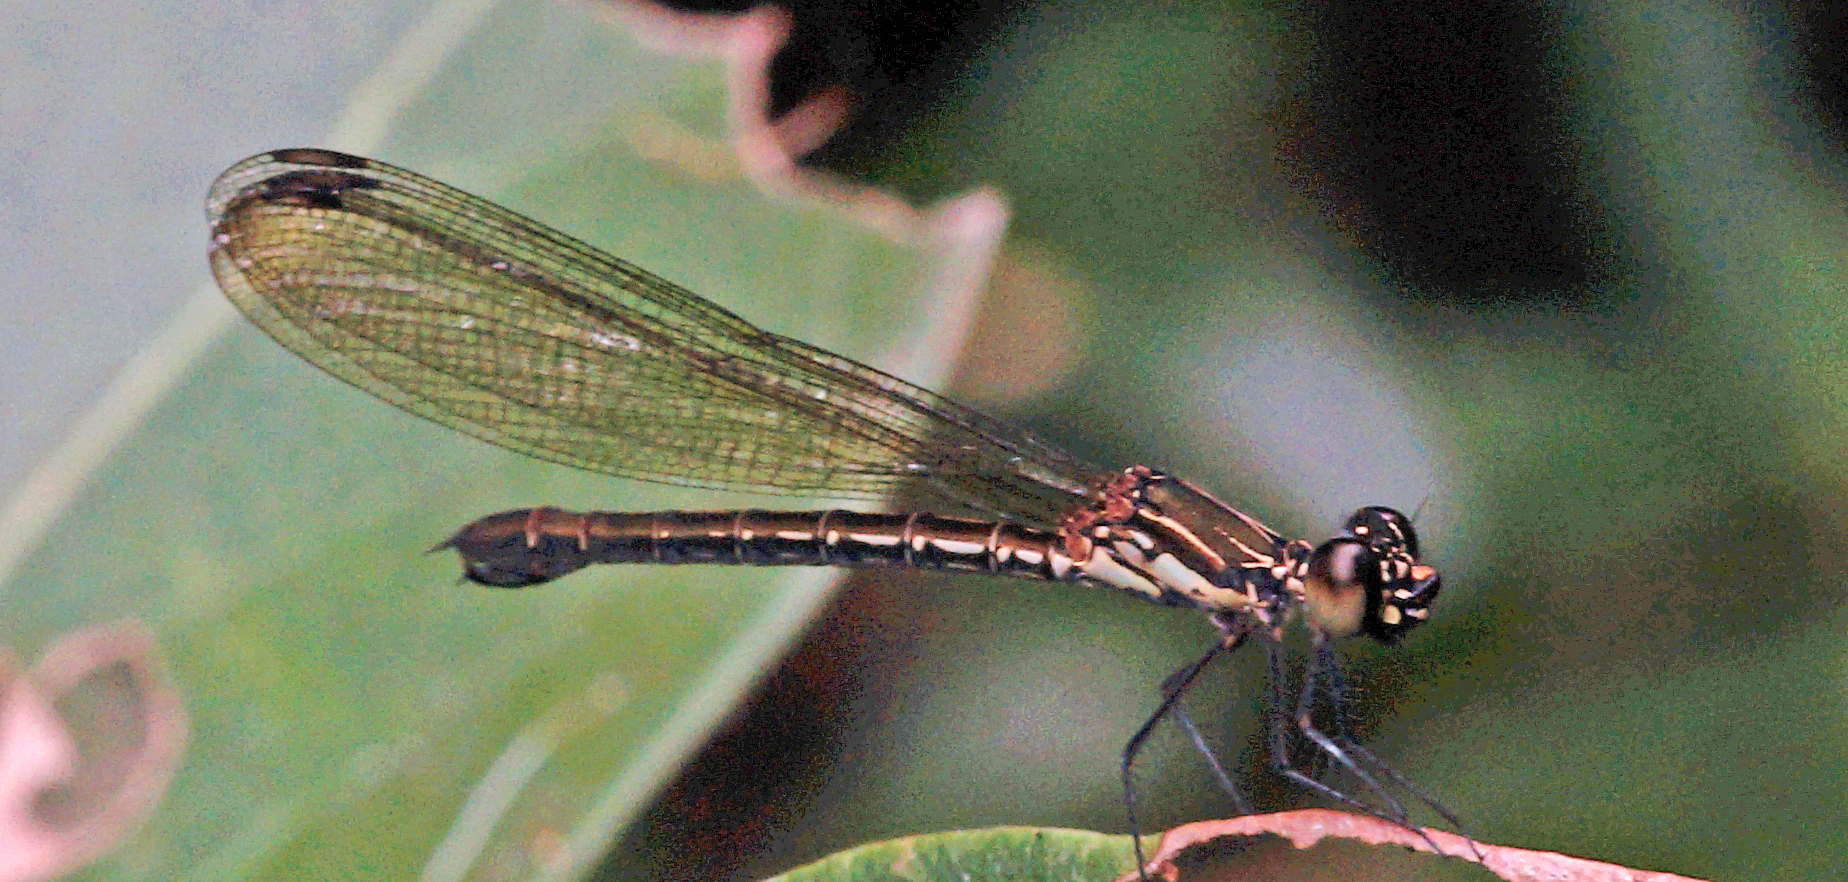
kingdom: Animalia
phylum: Arthropoda
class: Insecta
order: Odonata
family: Chlorocyphidae
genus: Heliocypha
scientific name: Heliocypha biforata
